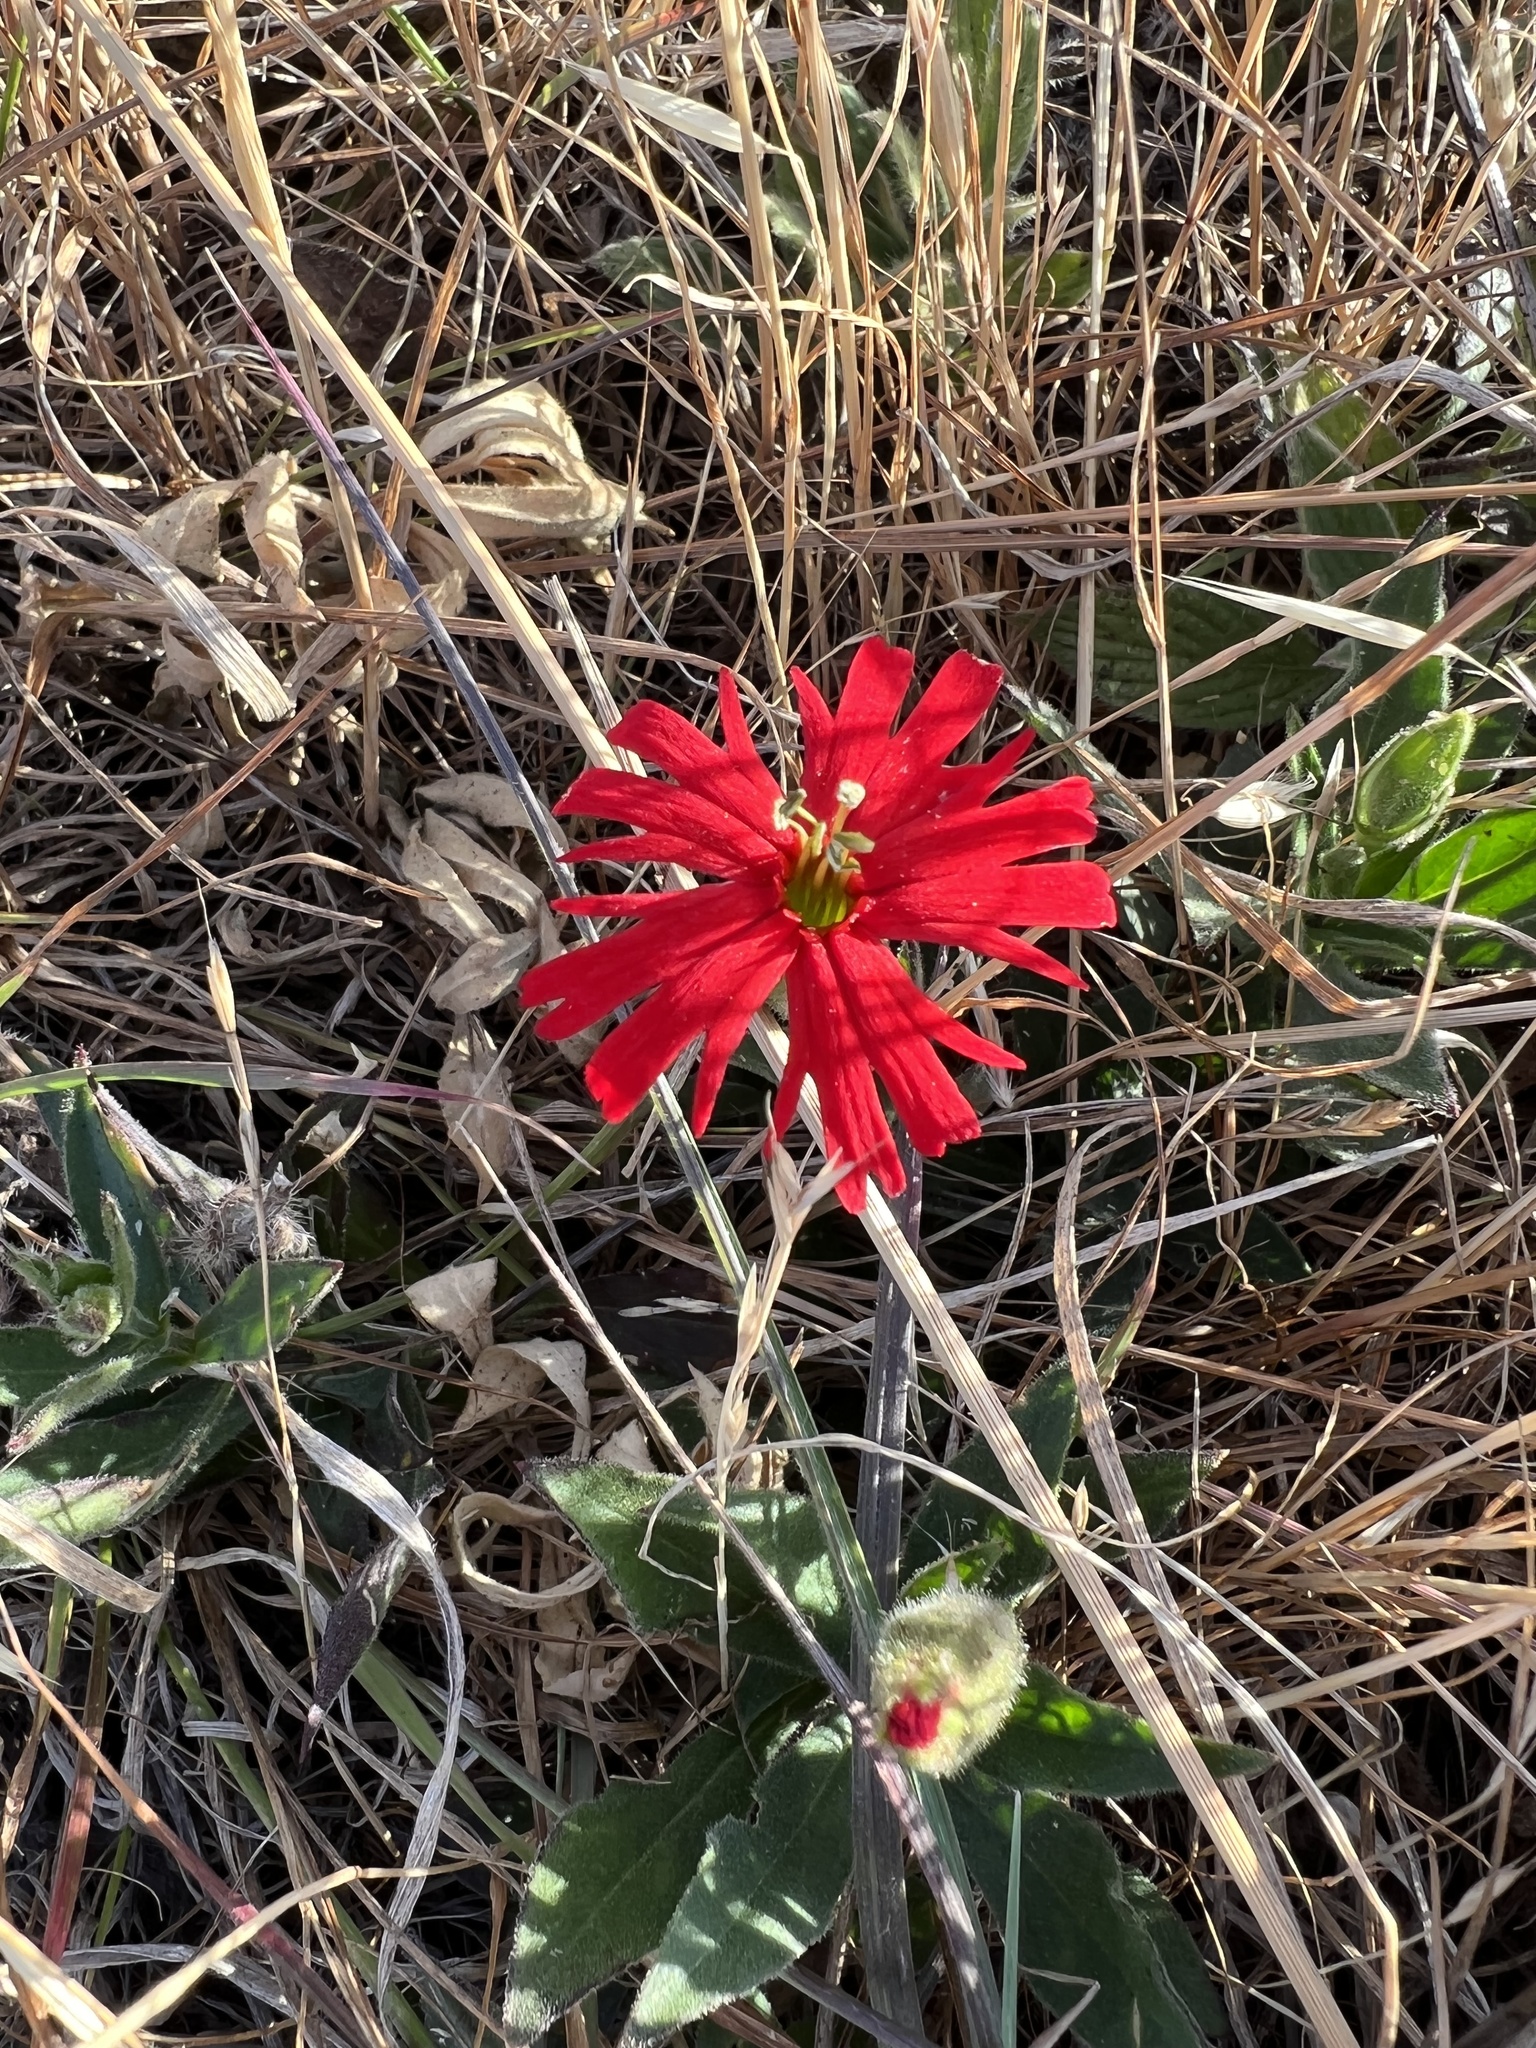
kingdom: Plantae
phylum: Tracheophyta
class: Magnoliopsida
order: Caryophyllales
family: Caryophyllaceae
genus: Silene
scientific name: Silene laciniata
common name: Indian-pink
